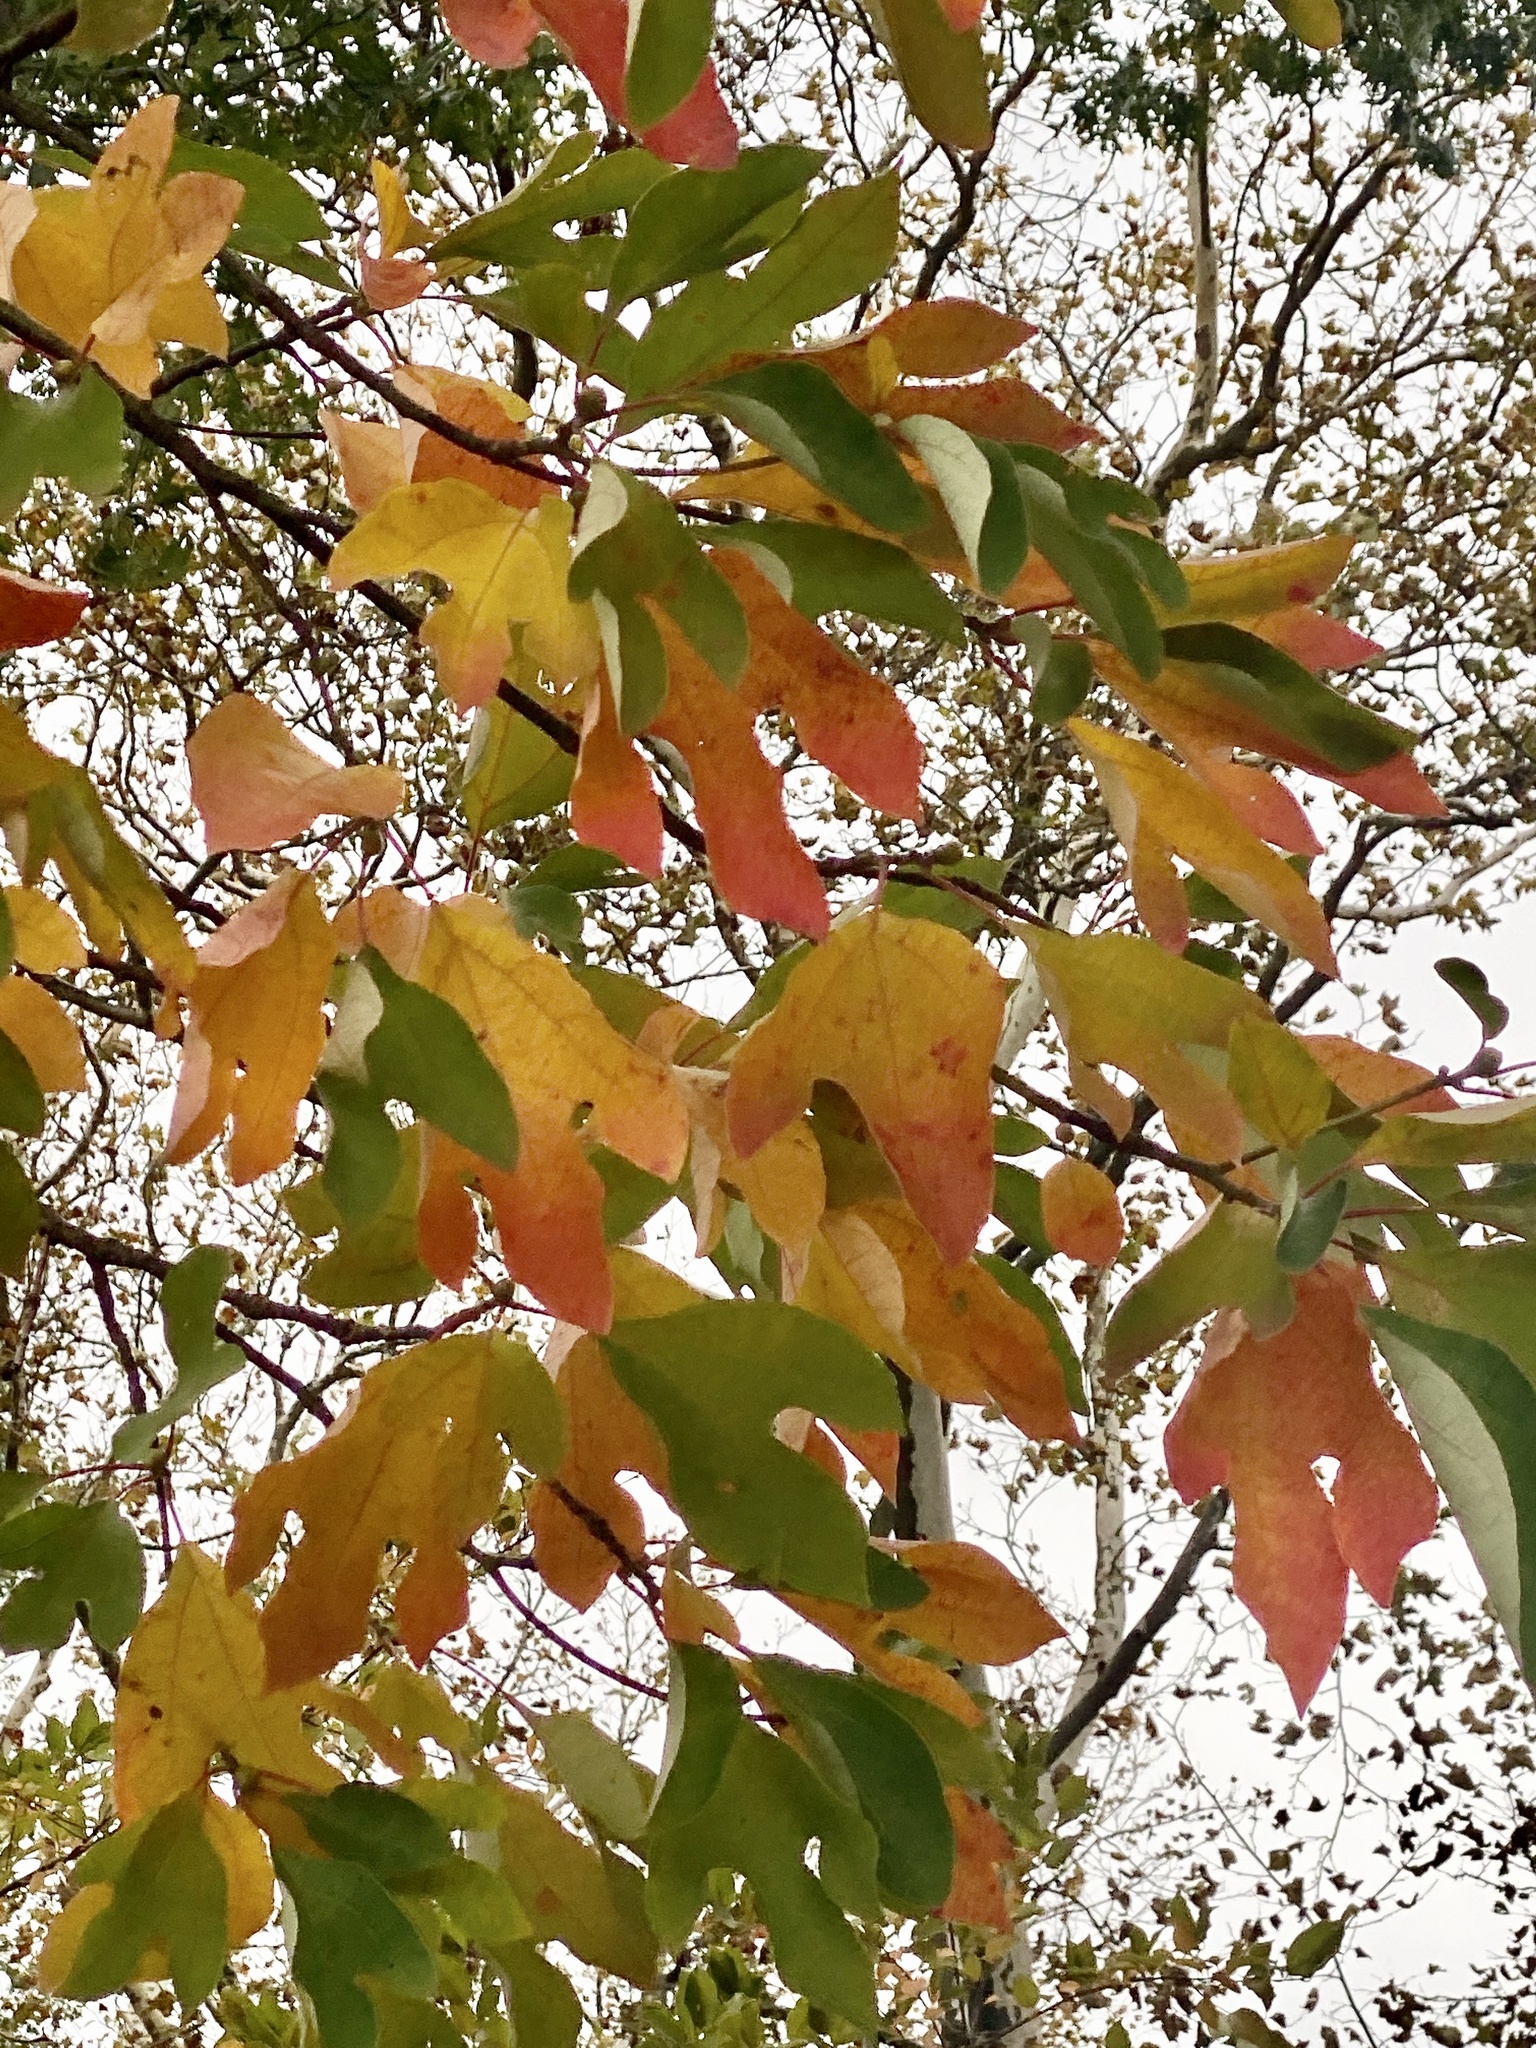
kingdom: Plantae
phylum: Tracheophyta
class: Magnoliopsida
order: Laurales
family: Lauraceae
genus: Sassafras
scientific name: Sassafras albidum
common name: Sassafras
